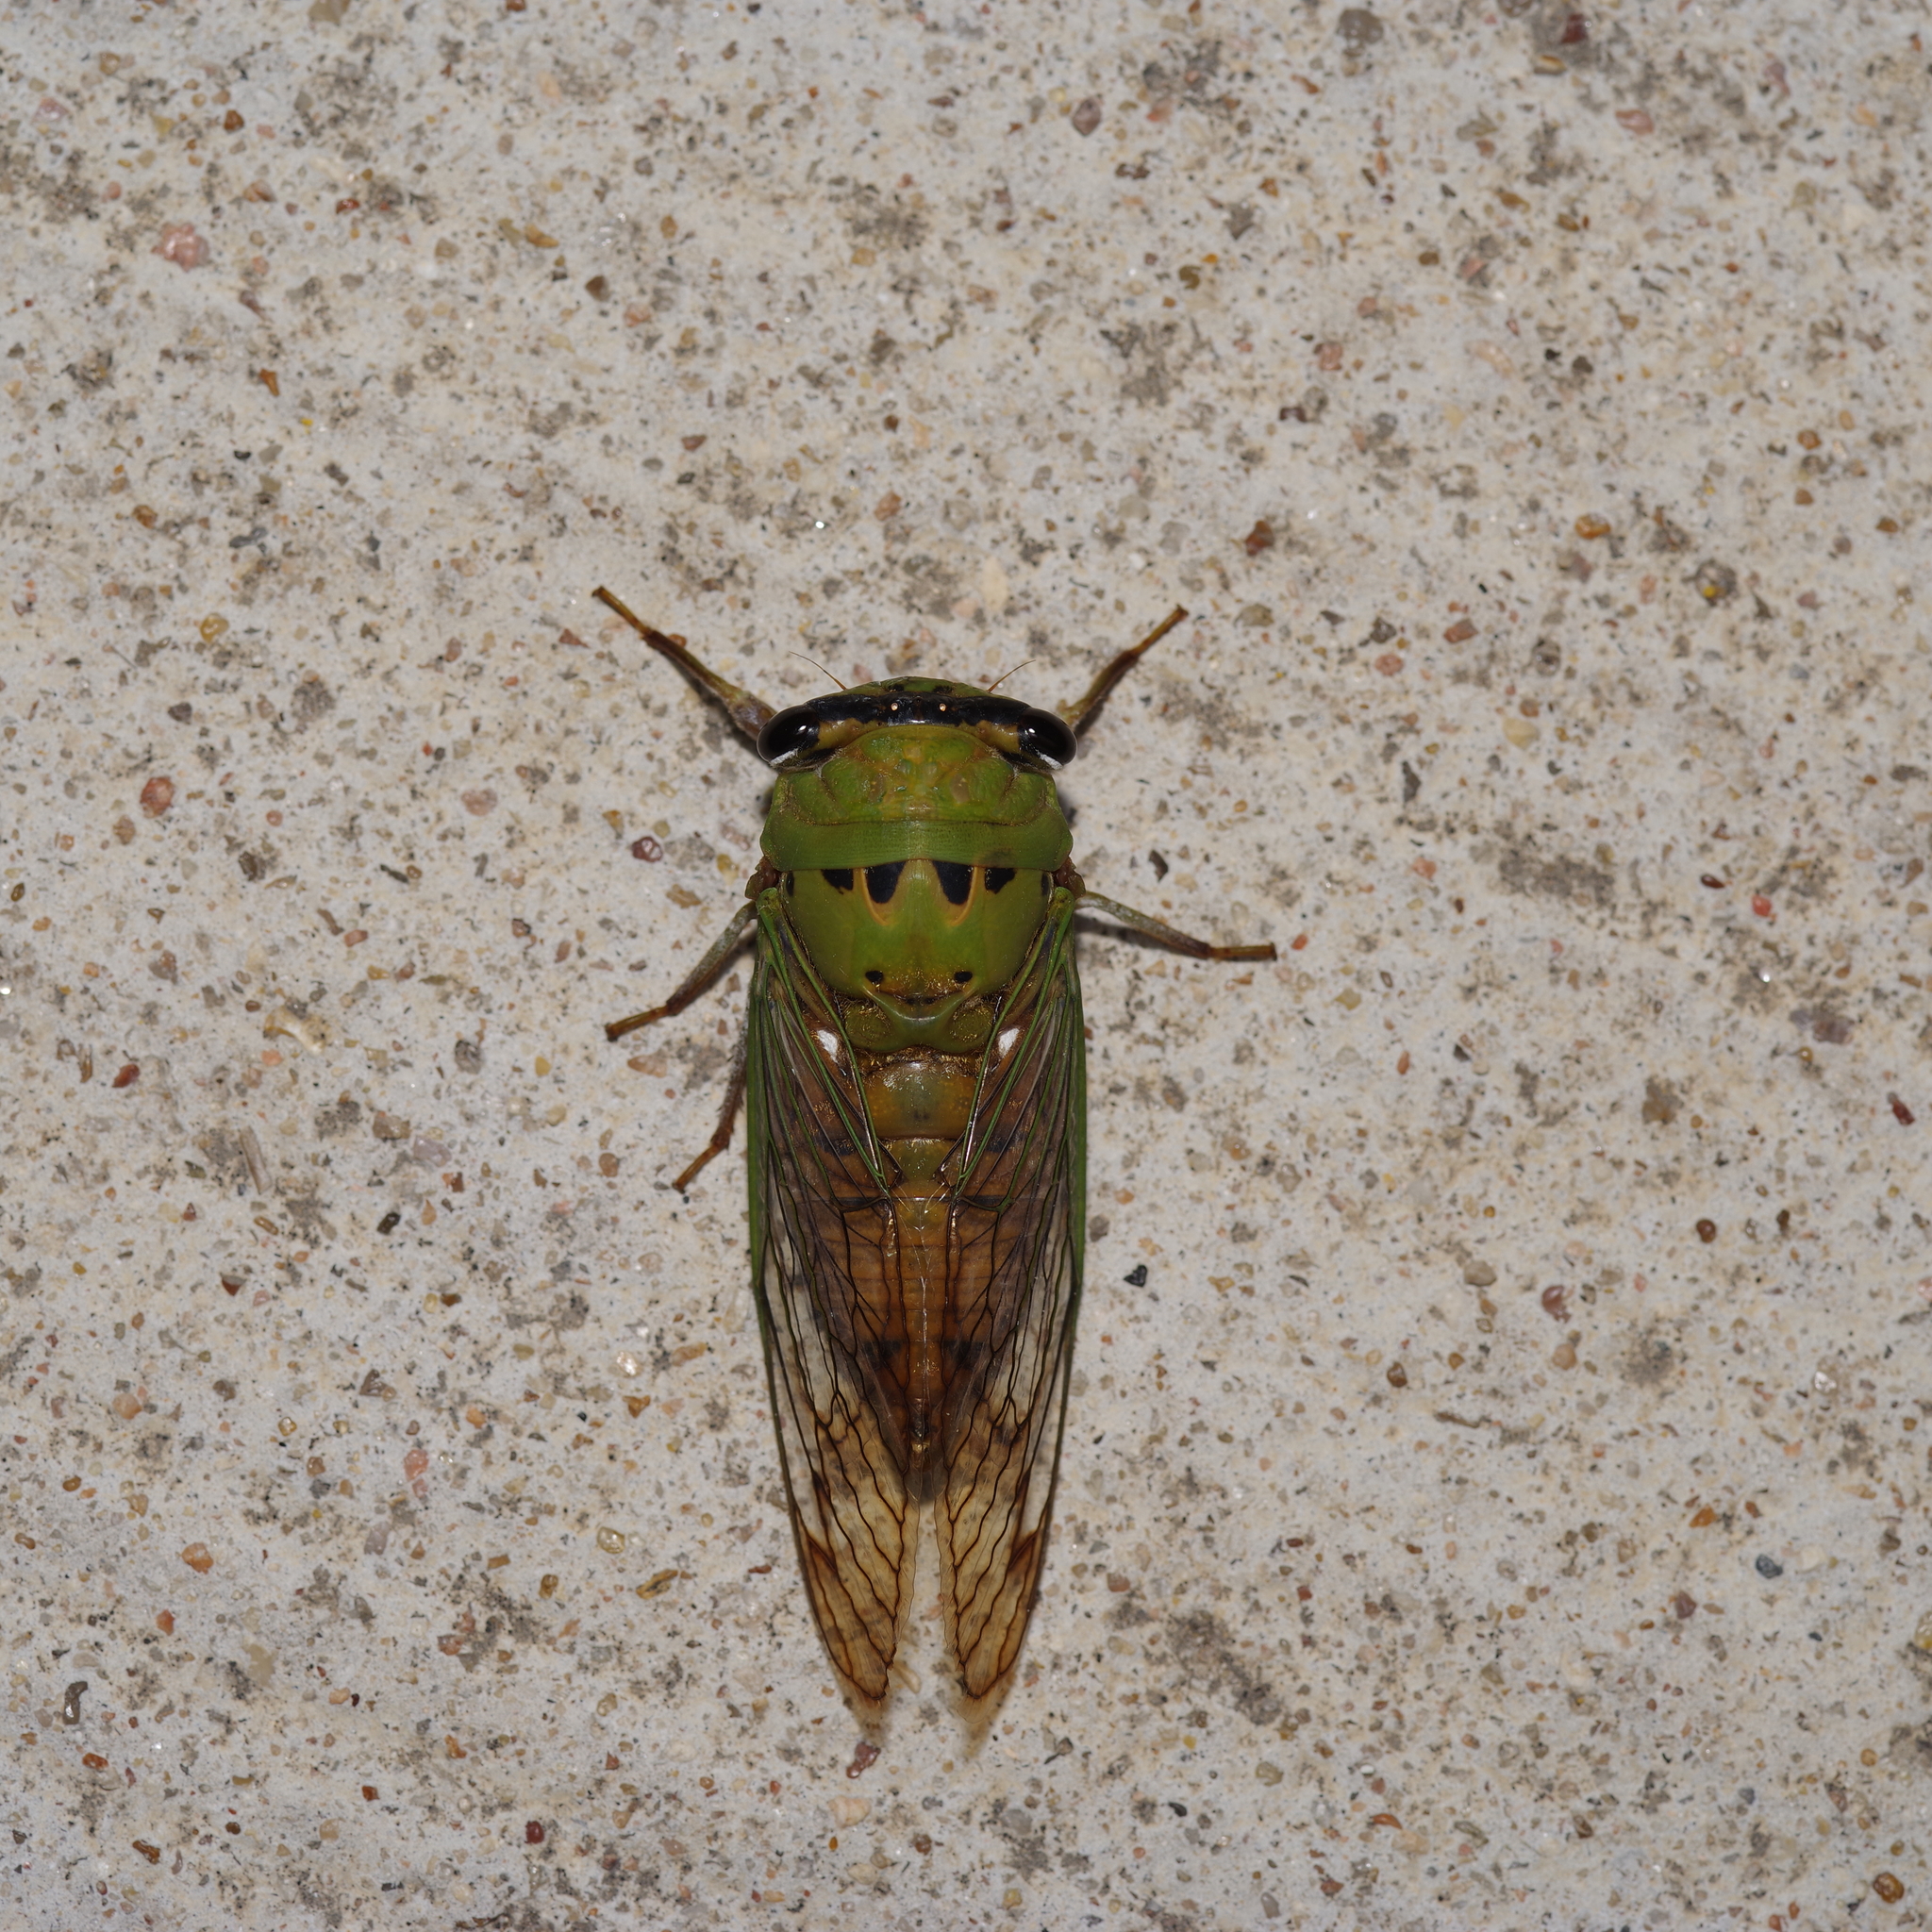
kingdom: Animalia
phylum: Arthropoda
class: Insecta
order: Hemiptera
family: Cicadidae
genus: Neotibicen
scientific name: Neotibicen superbus
